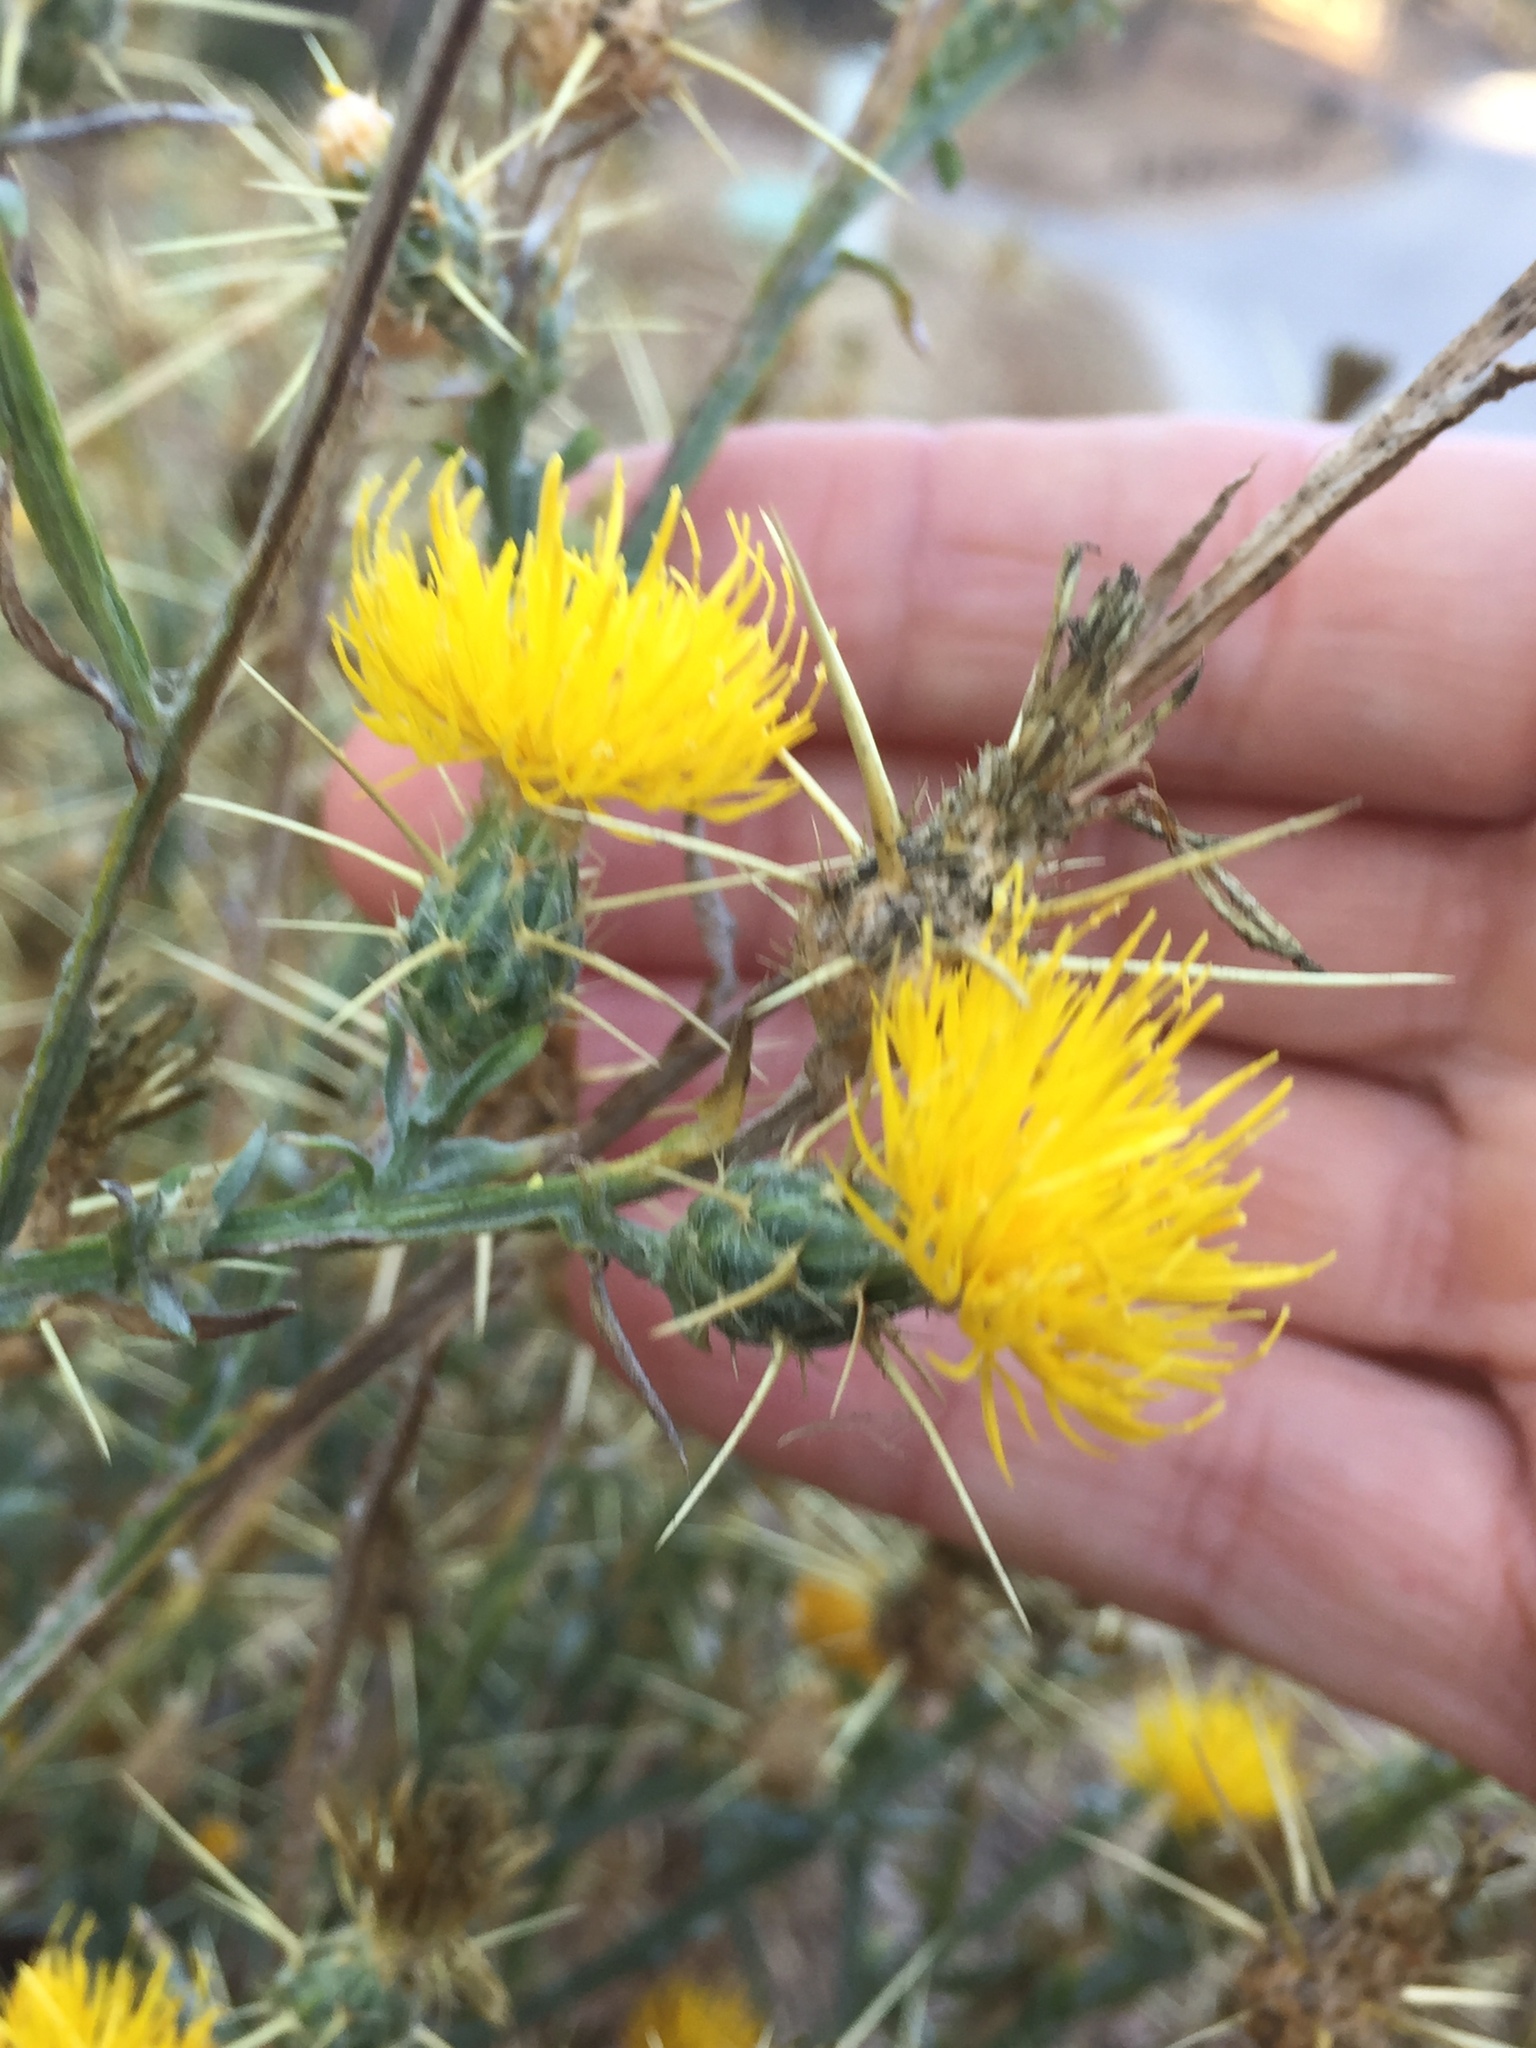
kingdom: Plantae
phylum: Tracheophyta
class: Magnoliopsida
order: Asterales
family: Asteraceae
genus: Centaurea
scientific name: Centaurea solstitialis
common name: Yellow star-thistle
